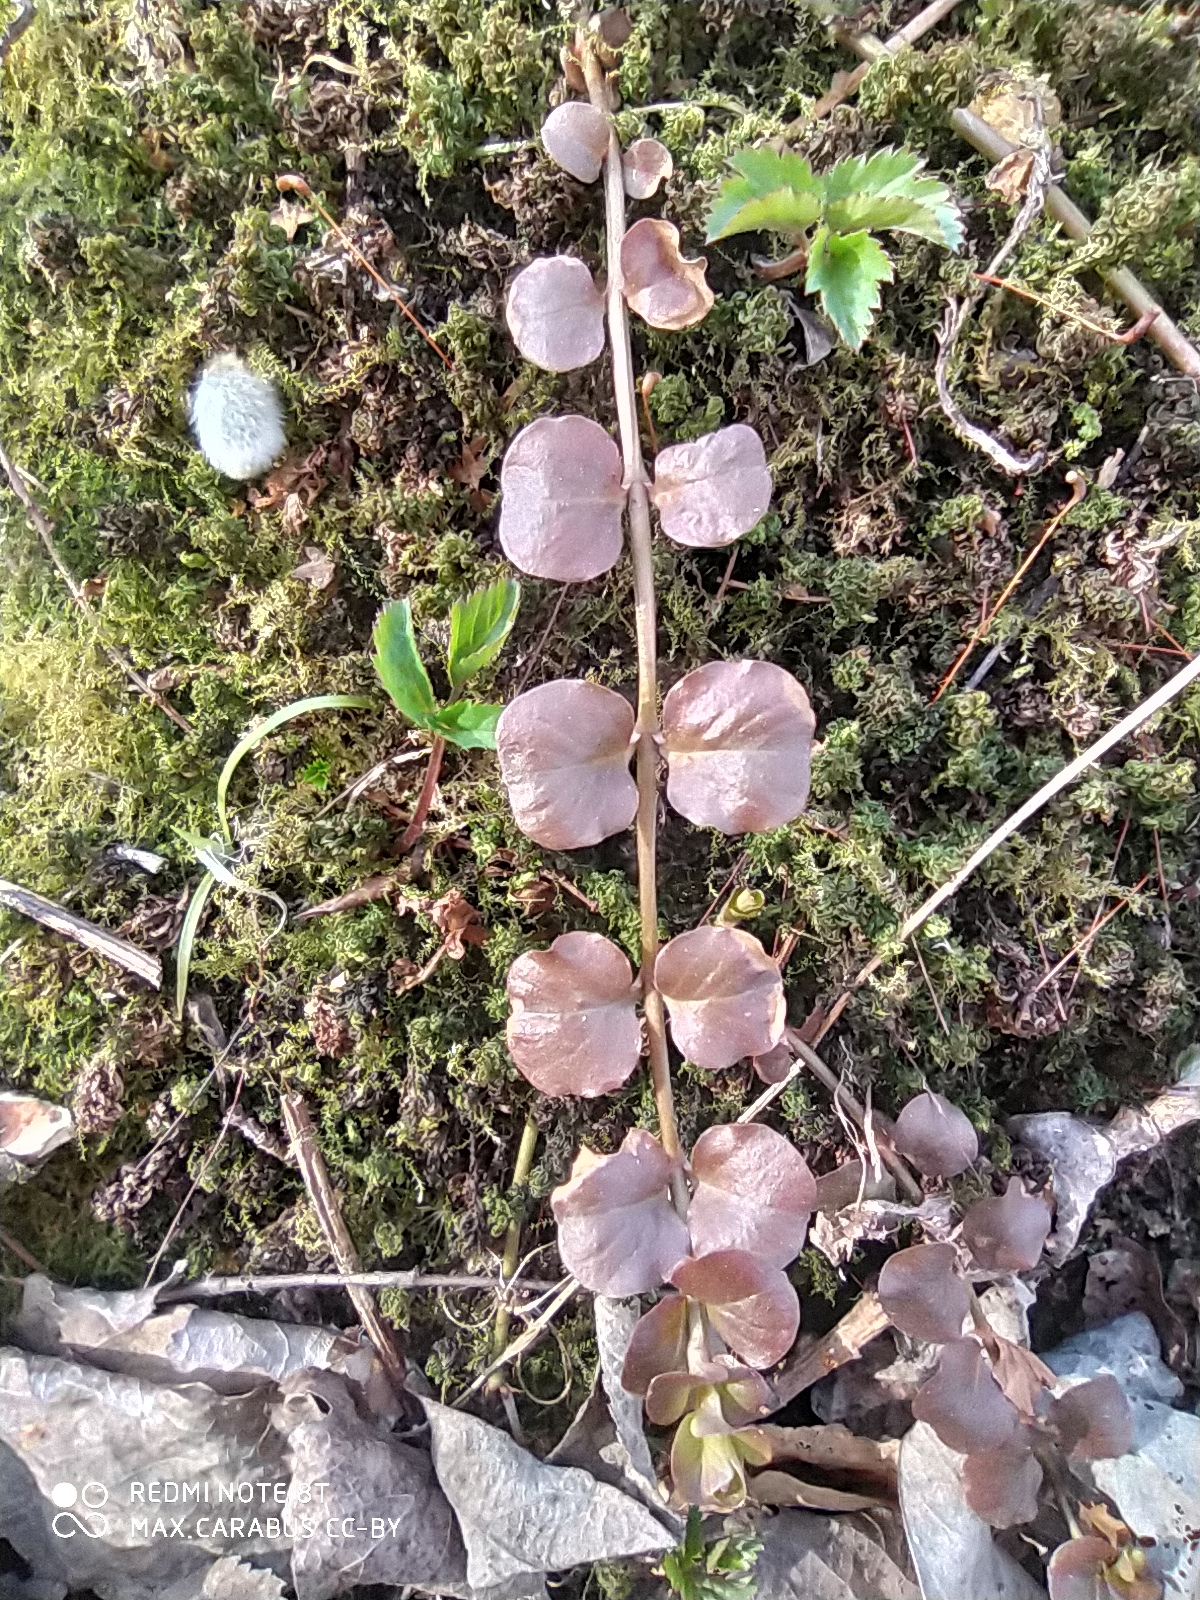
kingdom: Plantae
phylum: Tracheophyta
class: Magnoliopsida
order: Ericales
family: Primulaceae
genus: Lysimachia
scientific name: Lysimachia nummularia
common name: Moneywort
